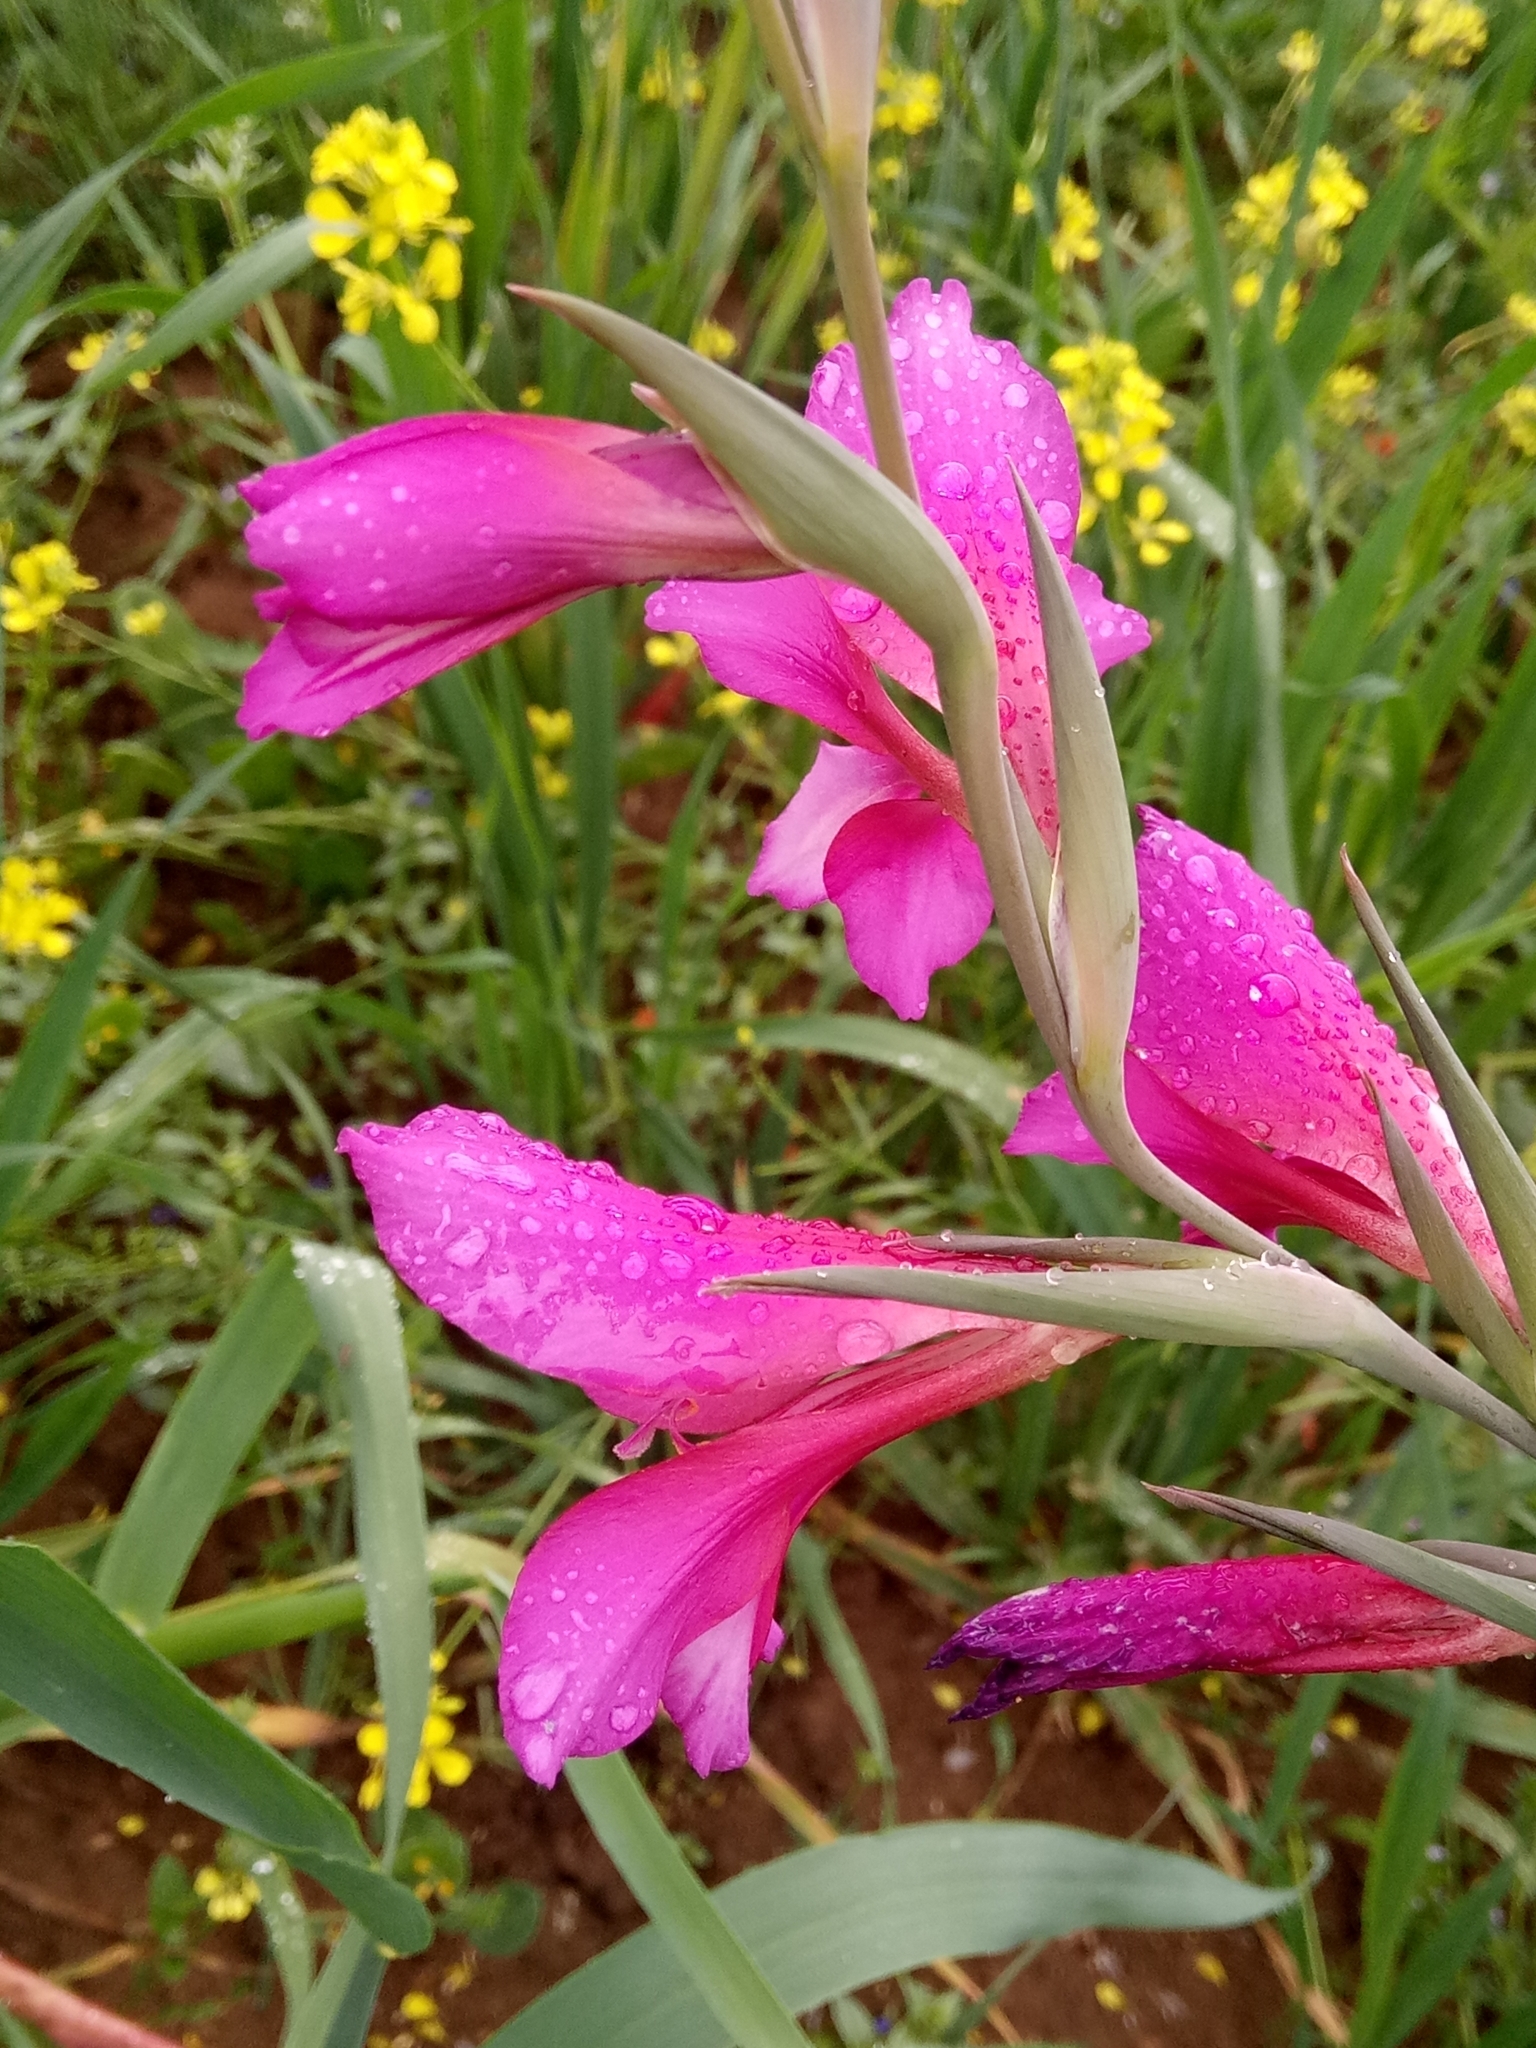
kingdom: Plantae
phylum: Tracheophyta
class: Liliopsida
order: Asparagales
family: Iridaceae
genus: Gladiolus
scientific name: Gladiolus italicus
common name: Field gladiolus
